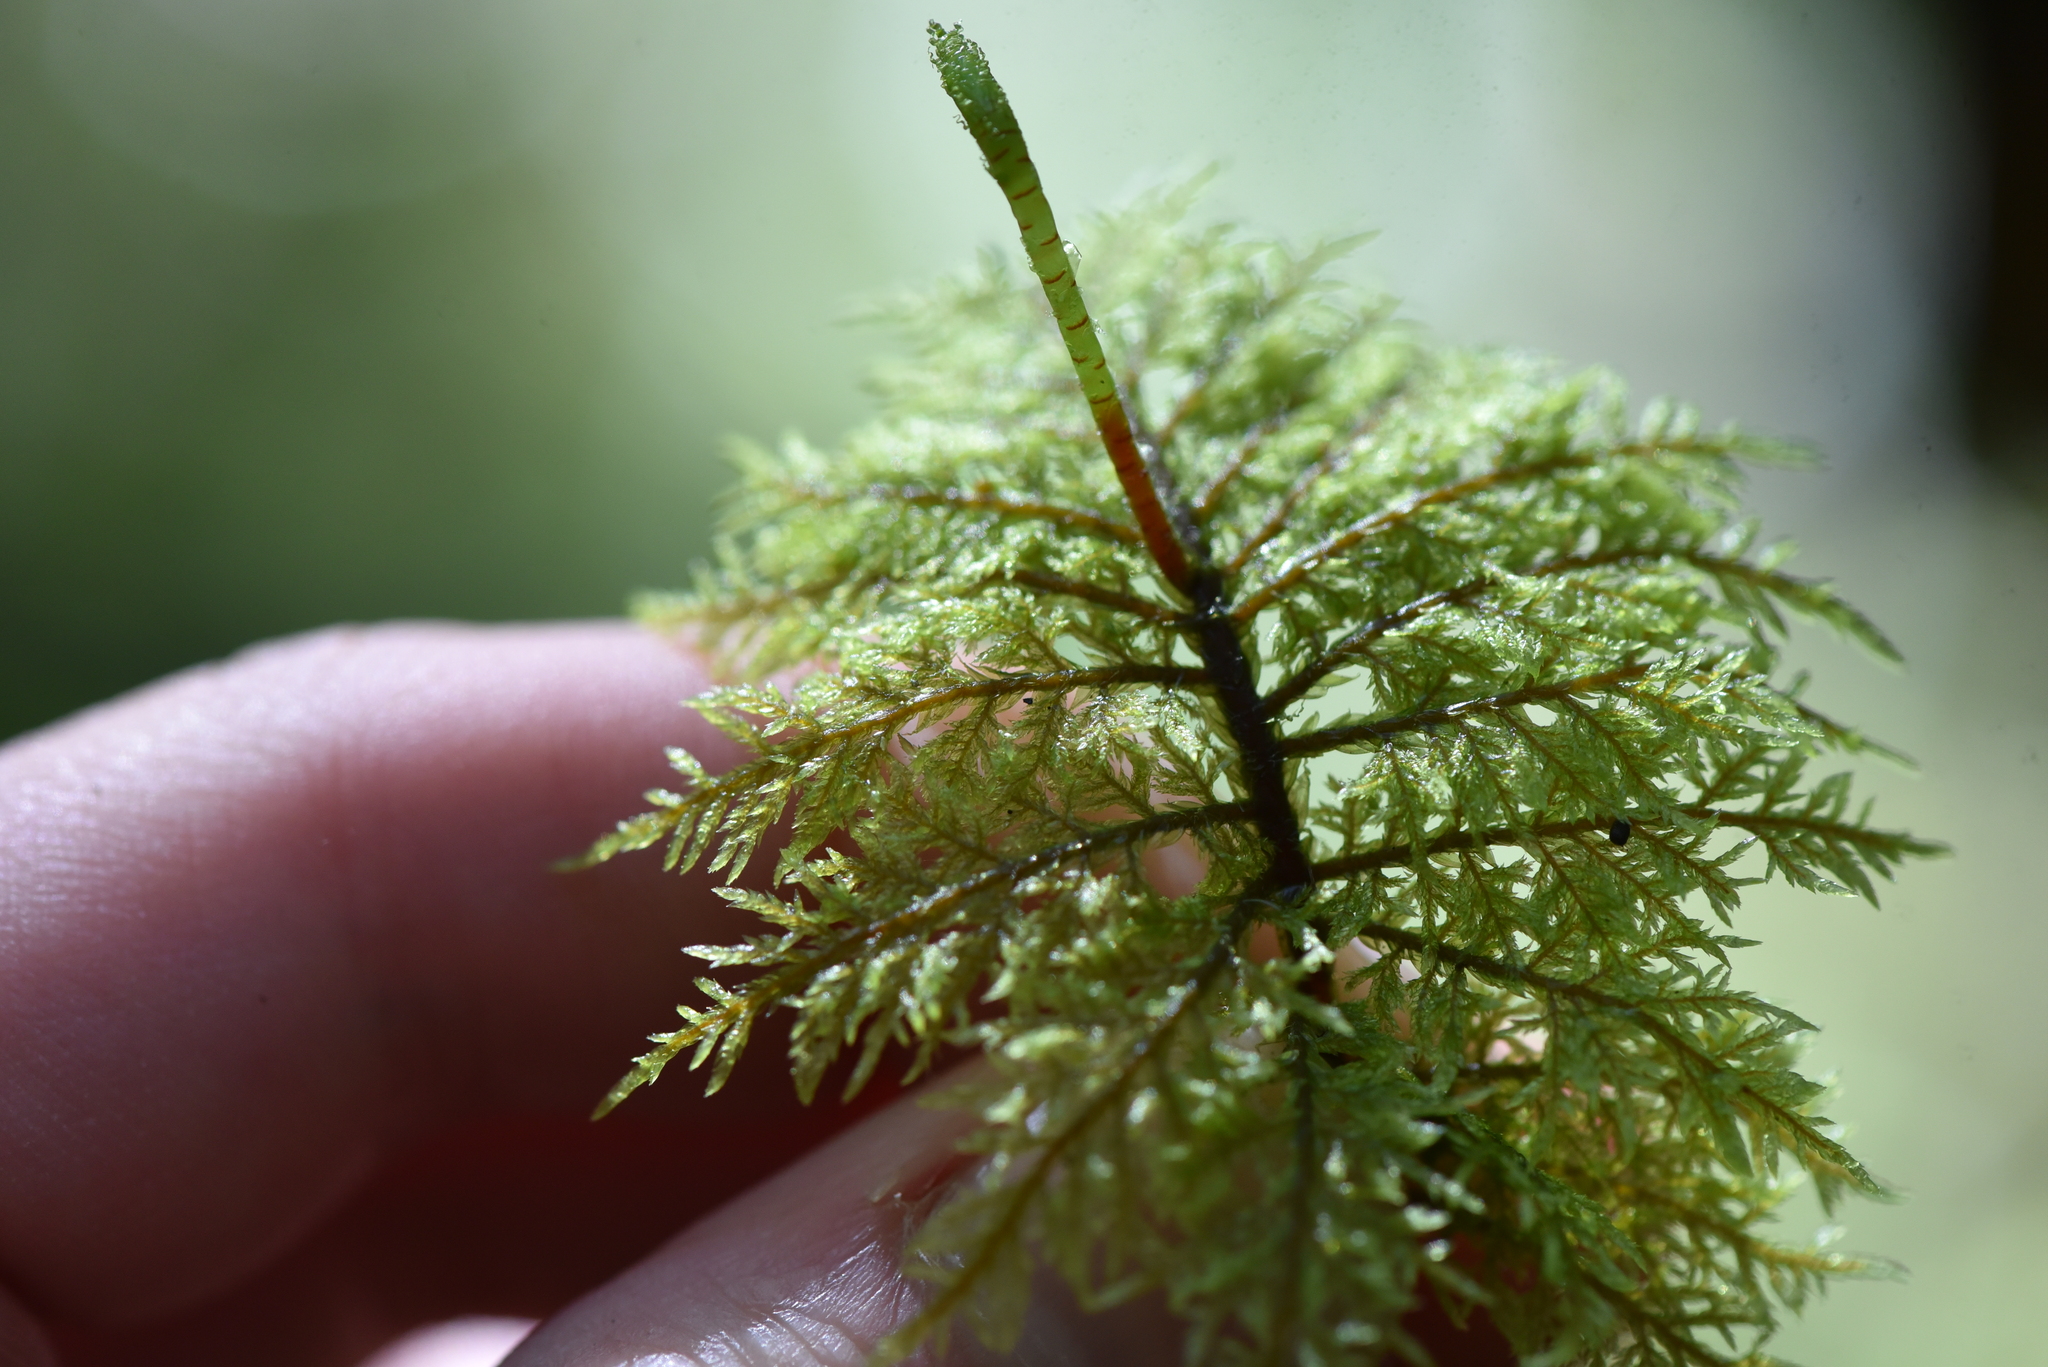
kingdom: Plantae
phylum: Bryophyta
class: Bryopsida
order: Hypnales
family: Hylocomiaceae
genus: Hylocomium
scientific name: Hylocomium splendens
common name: Stairstep moss
